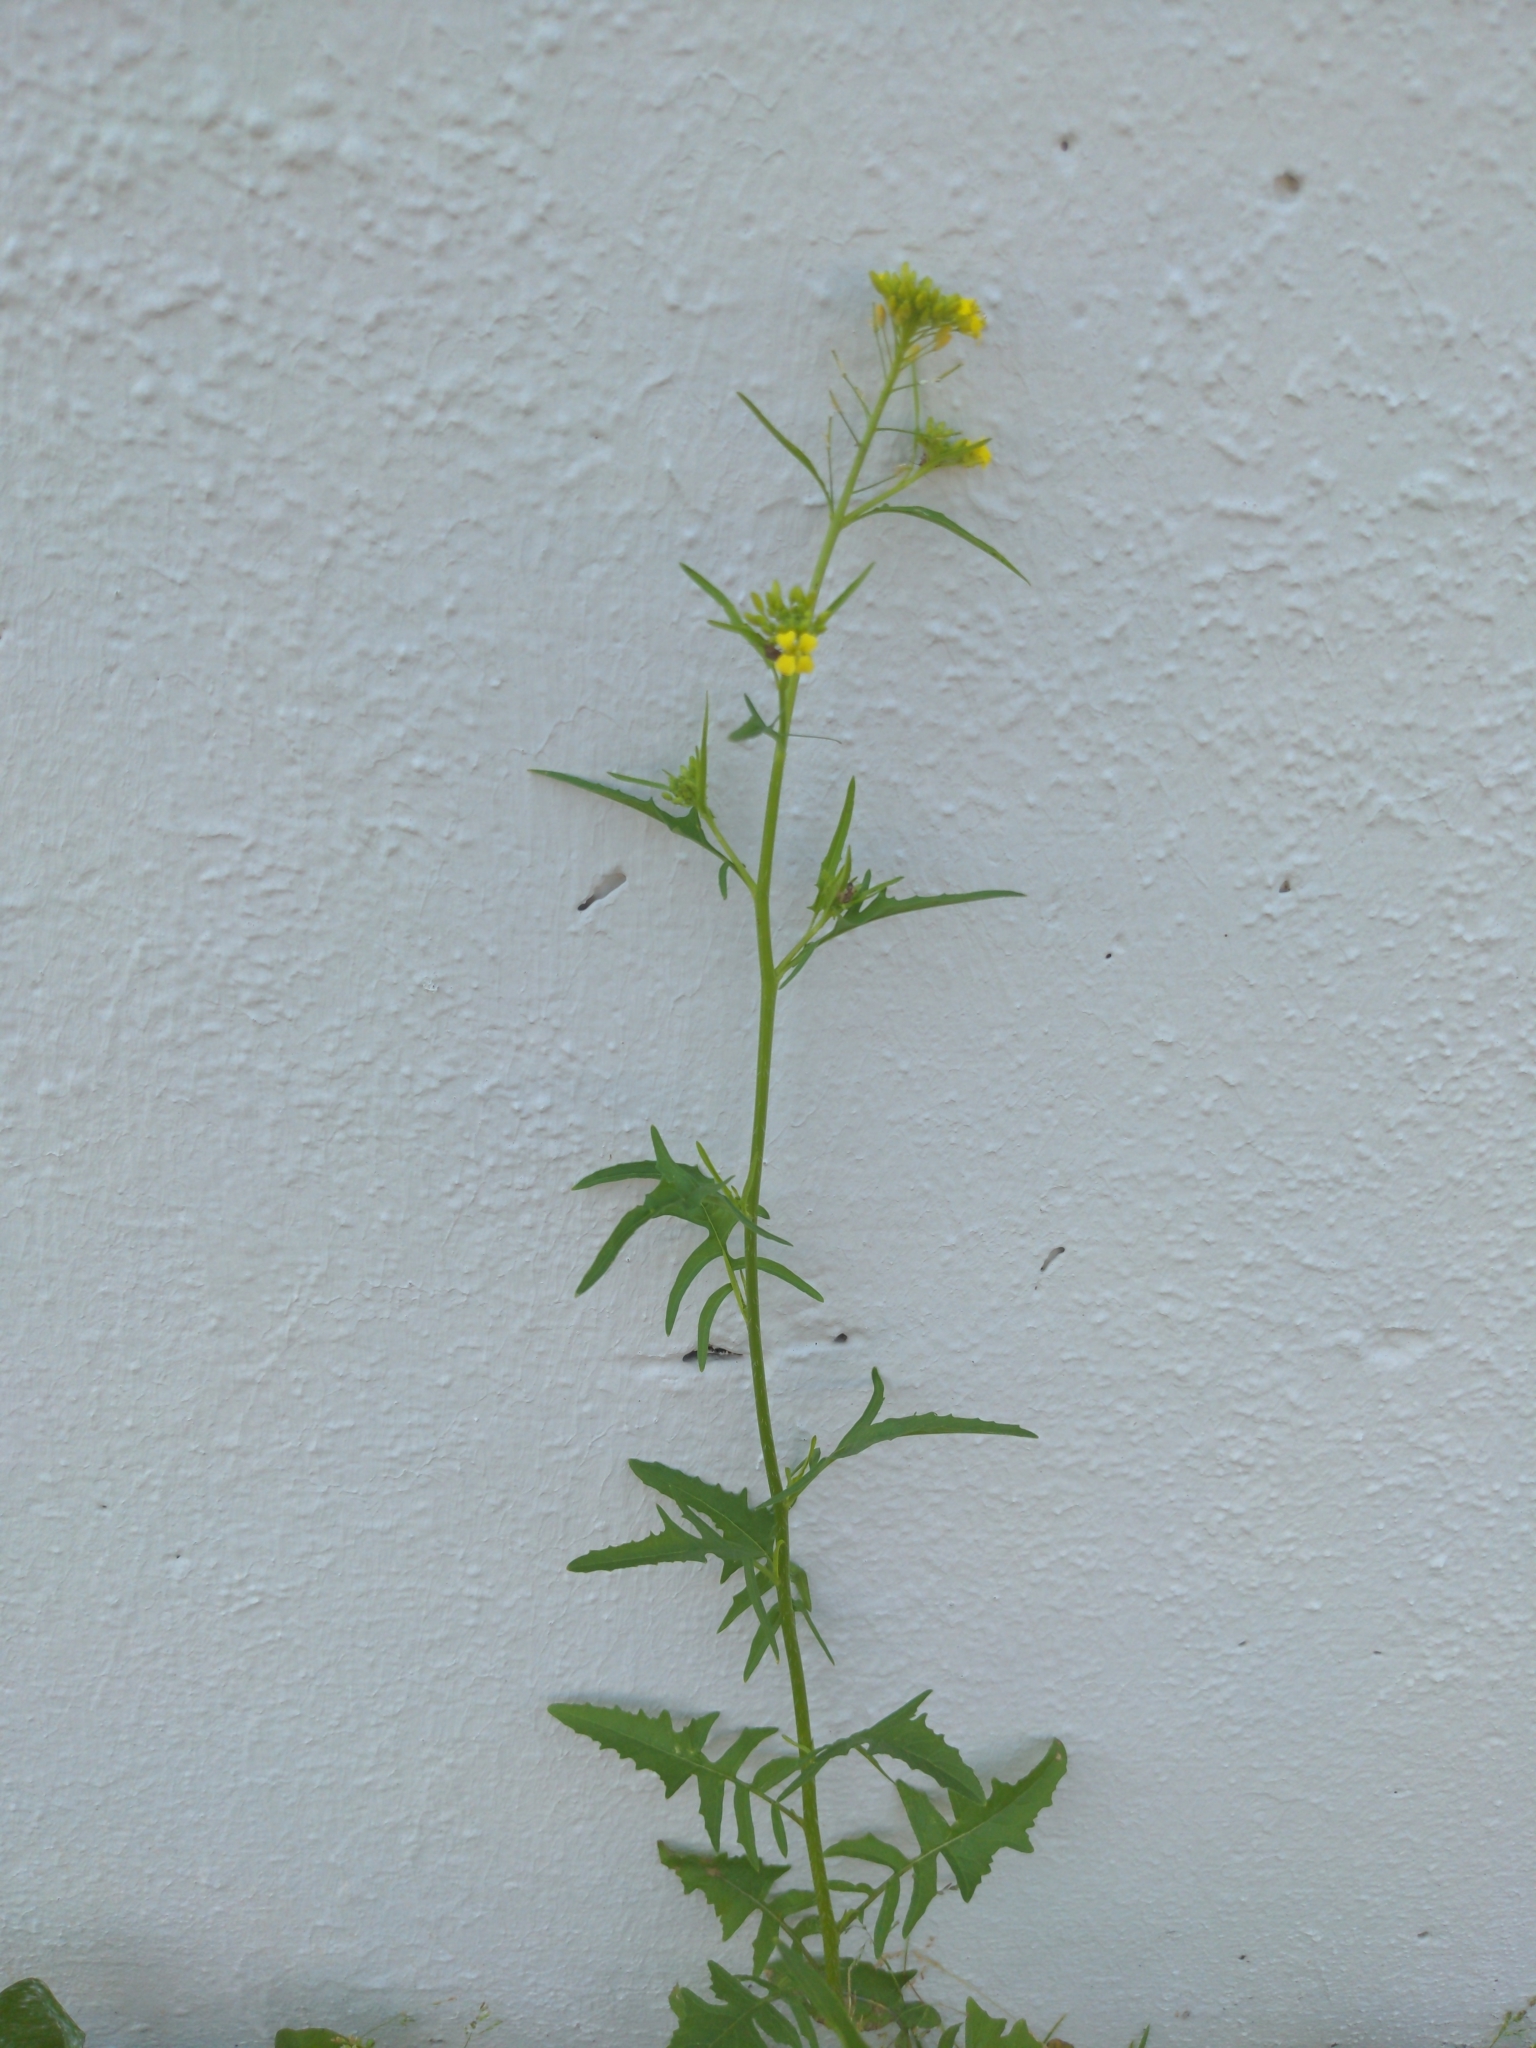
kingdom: Plantae
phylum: Tracheophyta
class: Magnoliopsida
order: Brassicales
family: Brassicaceae
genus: Sisymbrium
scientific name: Sisymbrium loeselii
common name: False london-rocket
